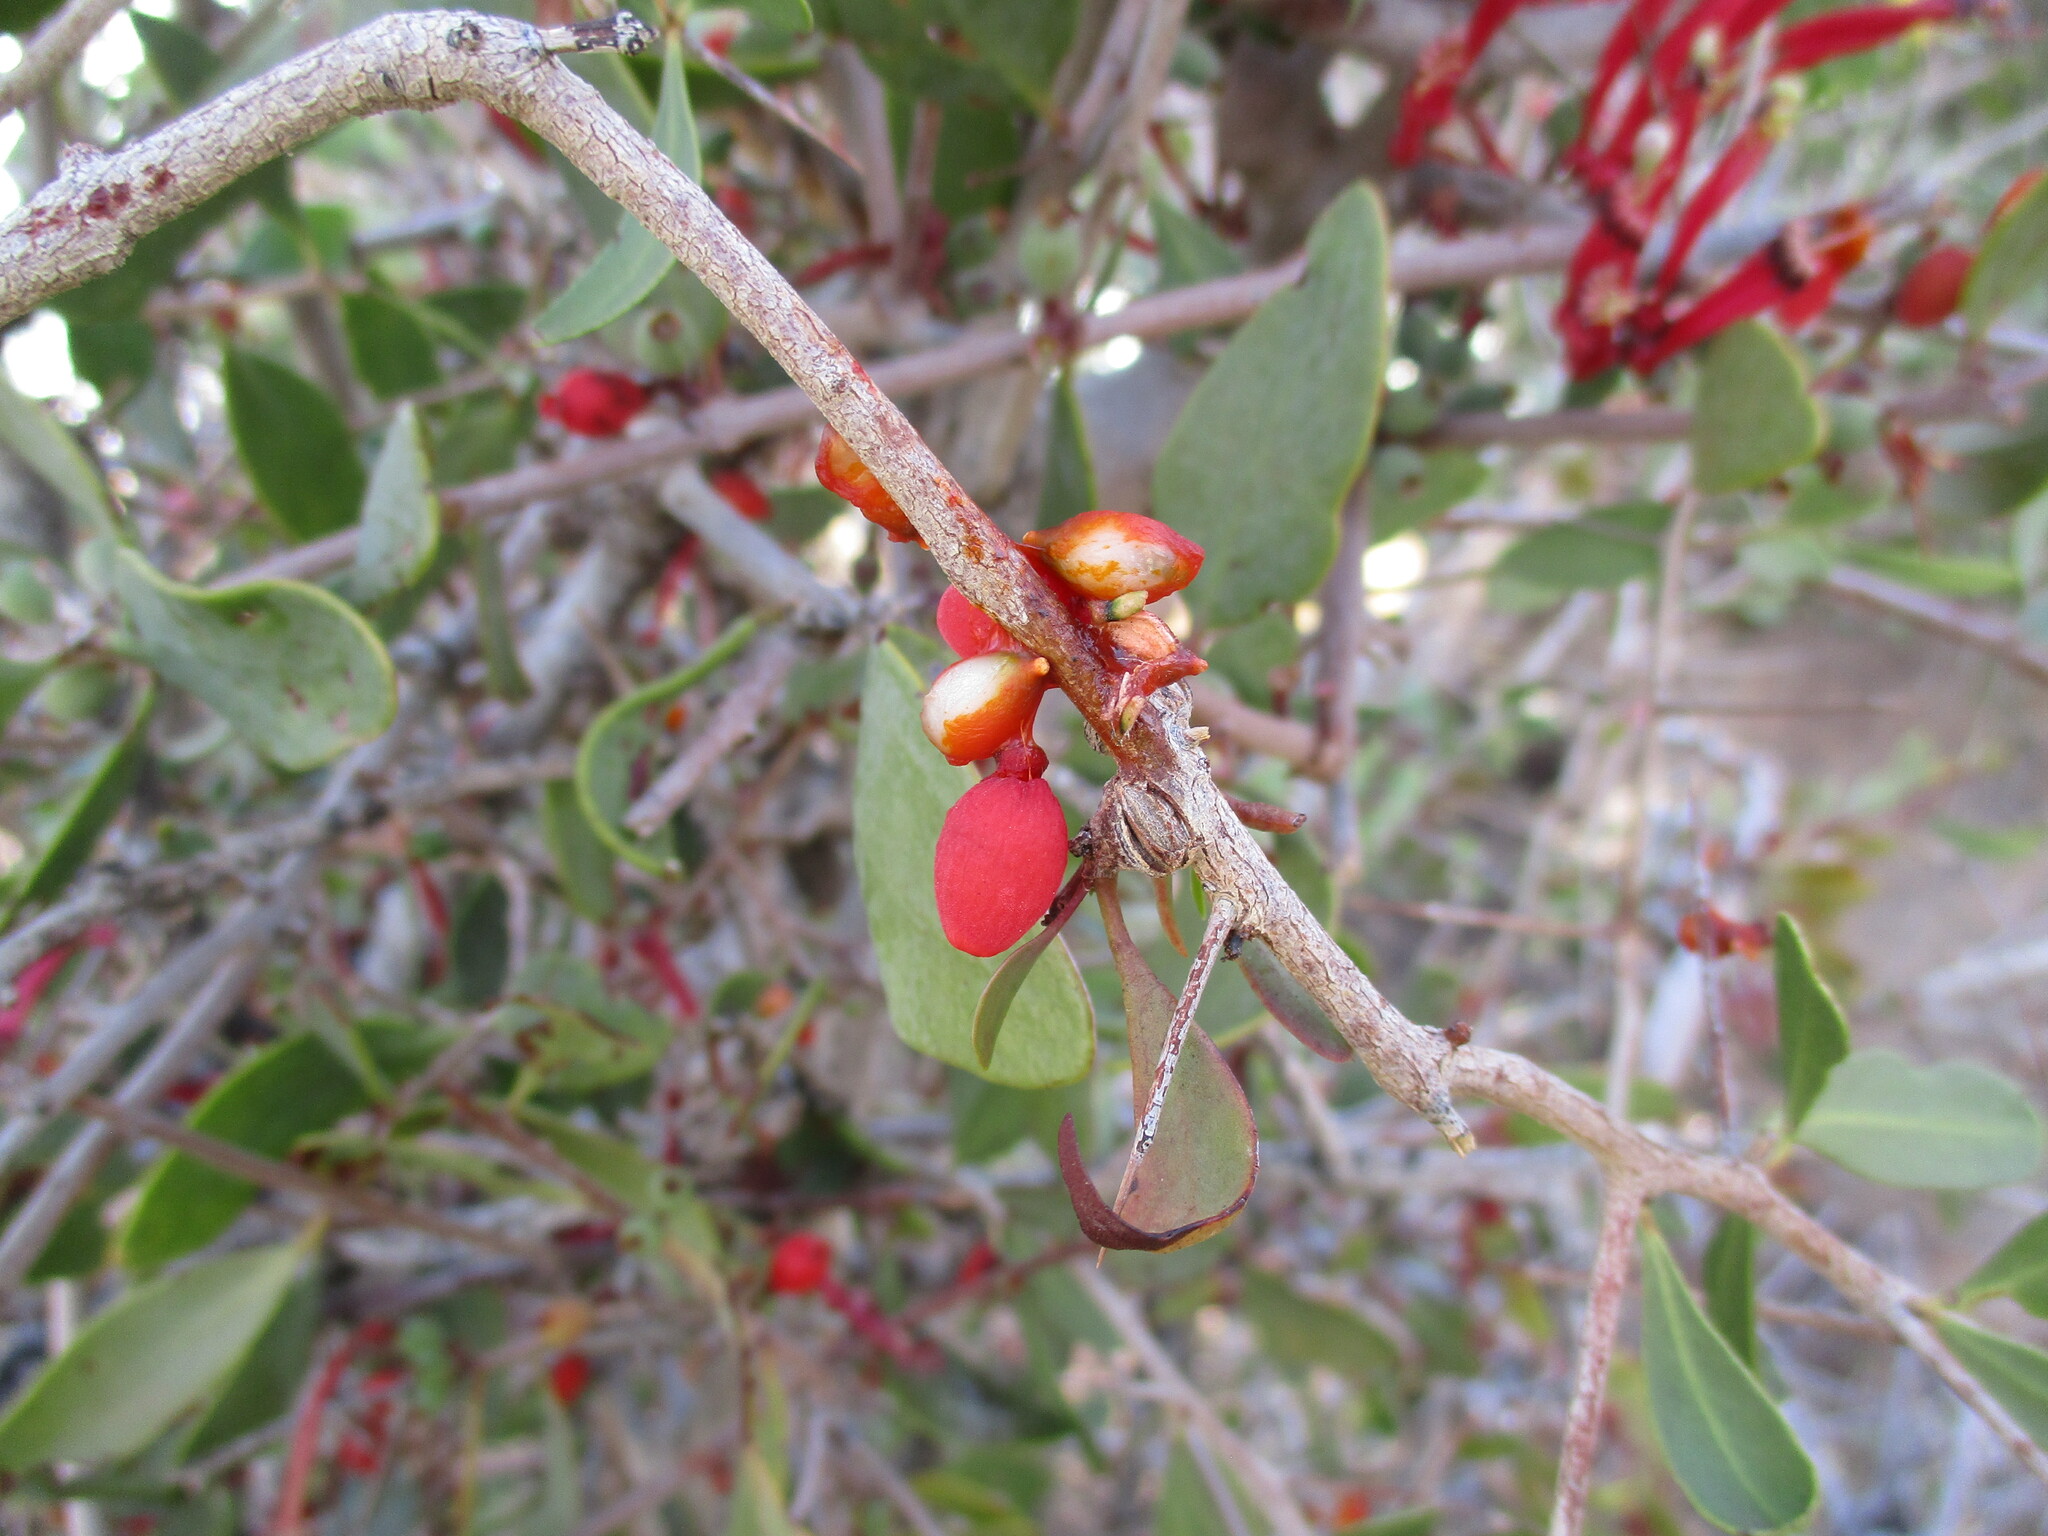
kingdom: Plantae
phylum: Tracheophyta
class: Magnoliopsida
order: Santalales
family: Loranthaceae
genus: Tapinanthus
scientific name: Tapinanthus oleifolius
